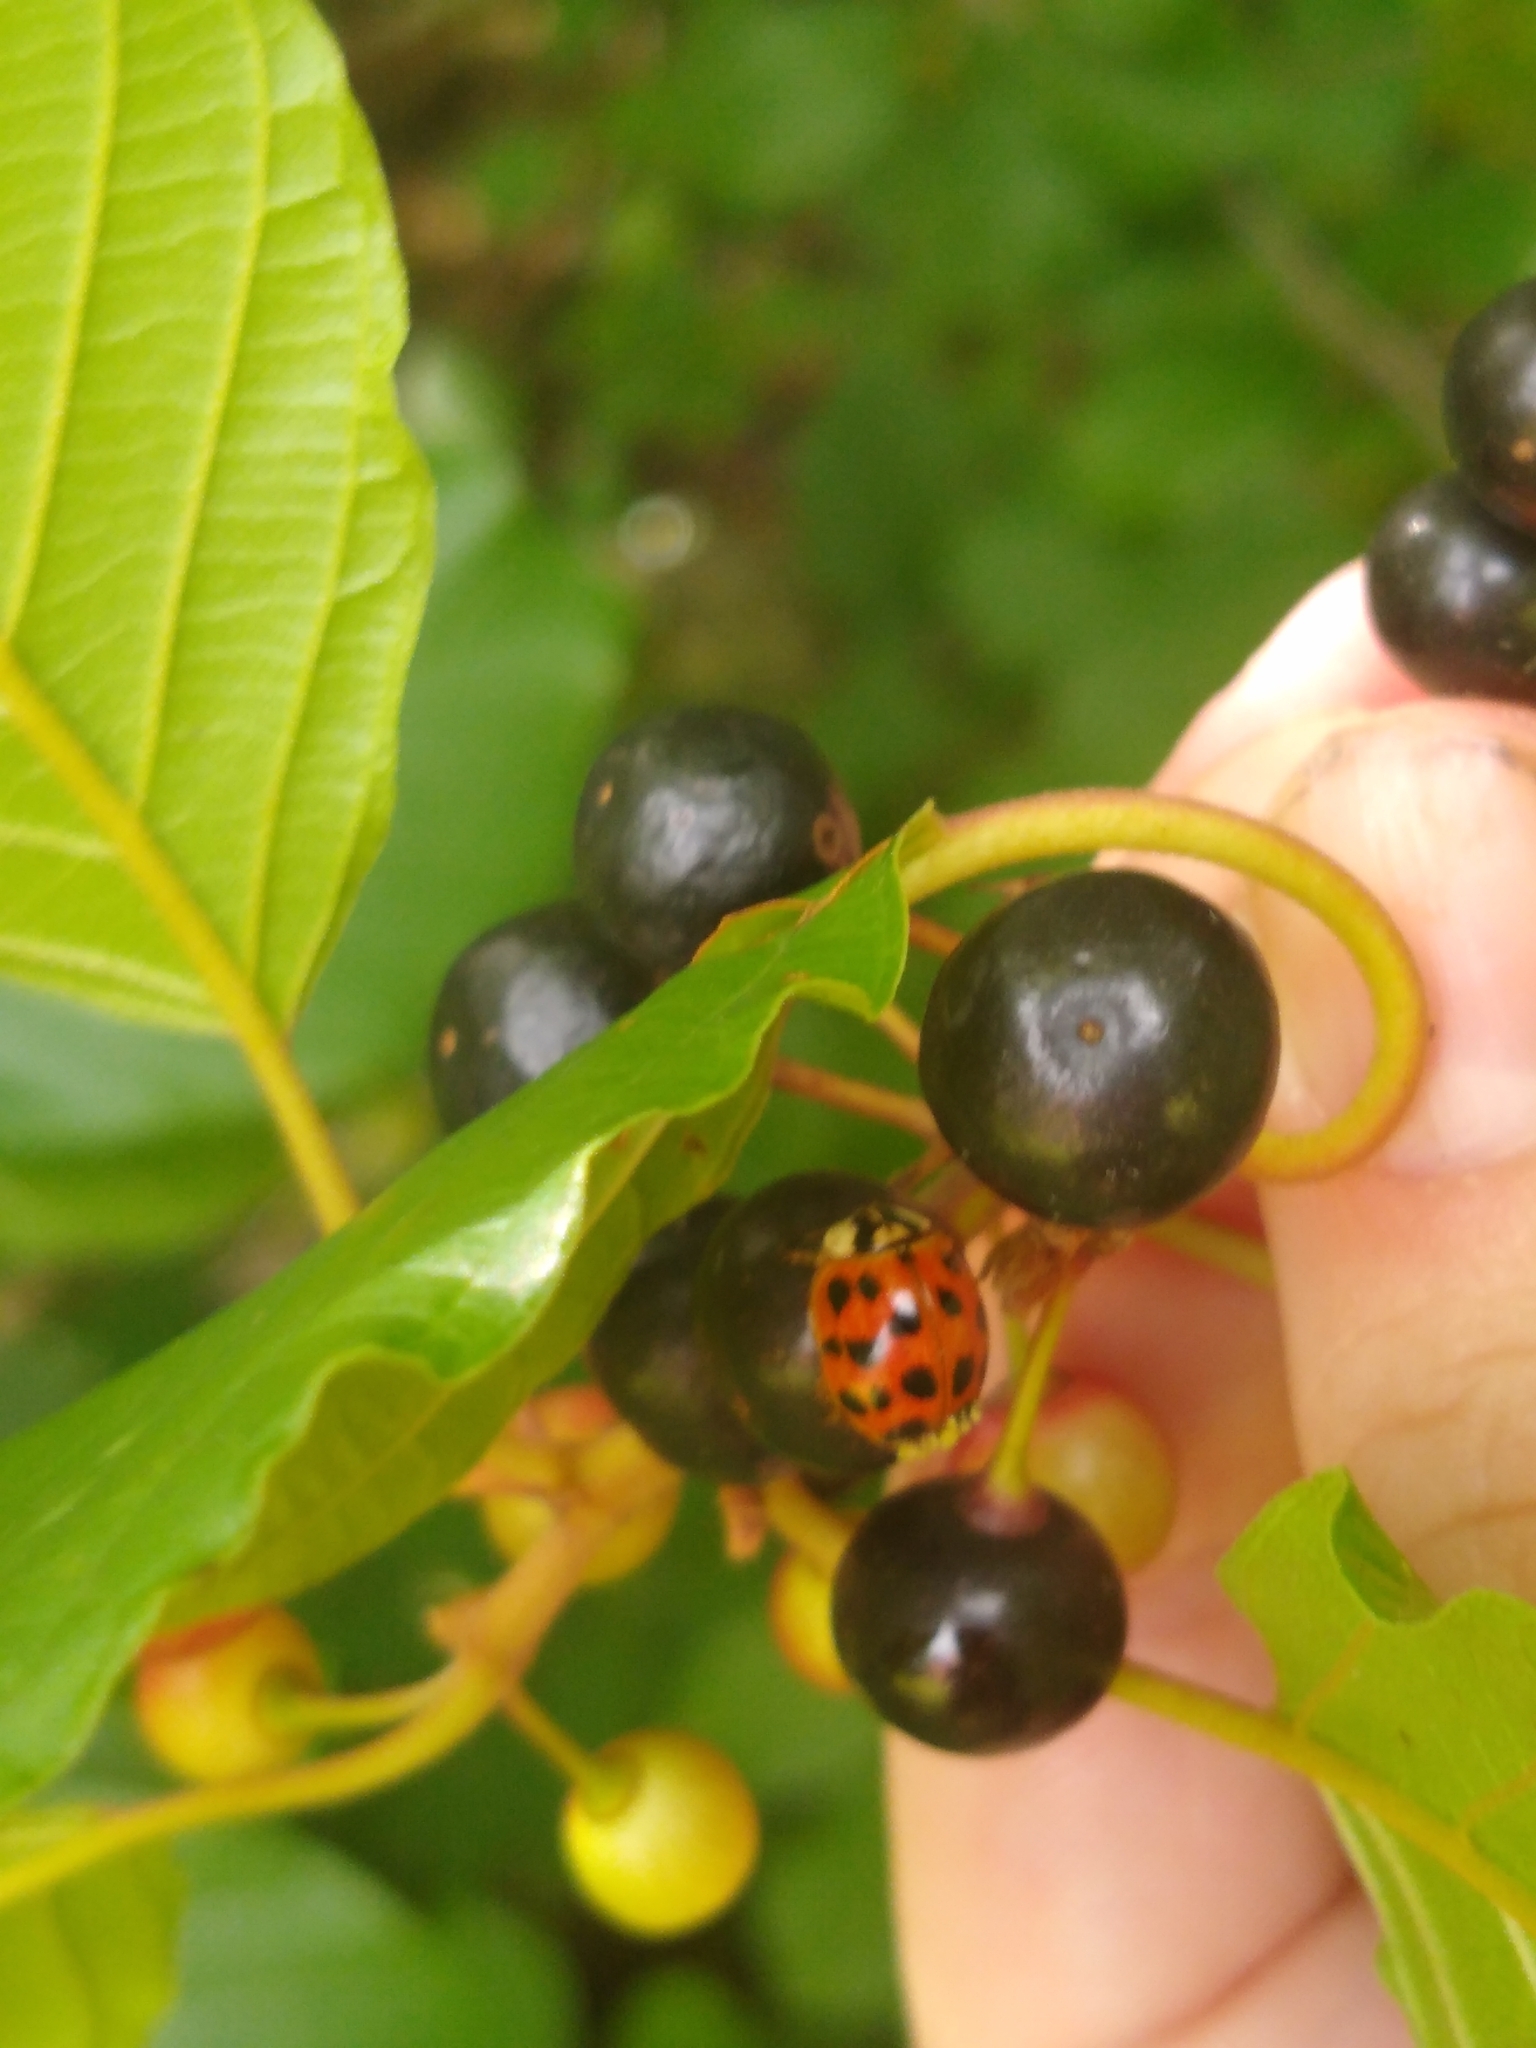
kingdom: Animalia
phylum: Arthropoda
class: Insecta
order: Coleoptera
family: Coccinellidae
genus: Harmonia
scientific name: Harmonia axyridis
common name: Harlequin ladybird
